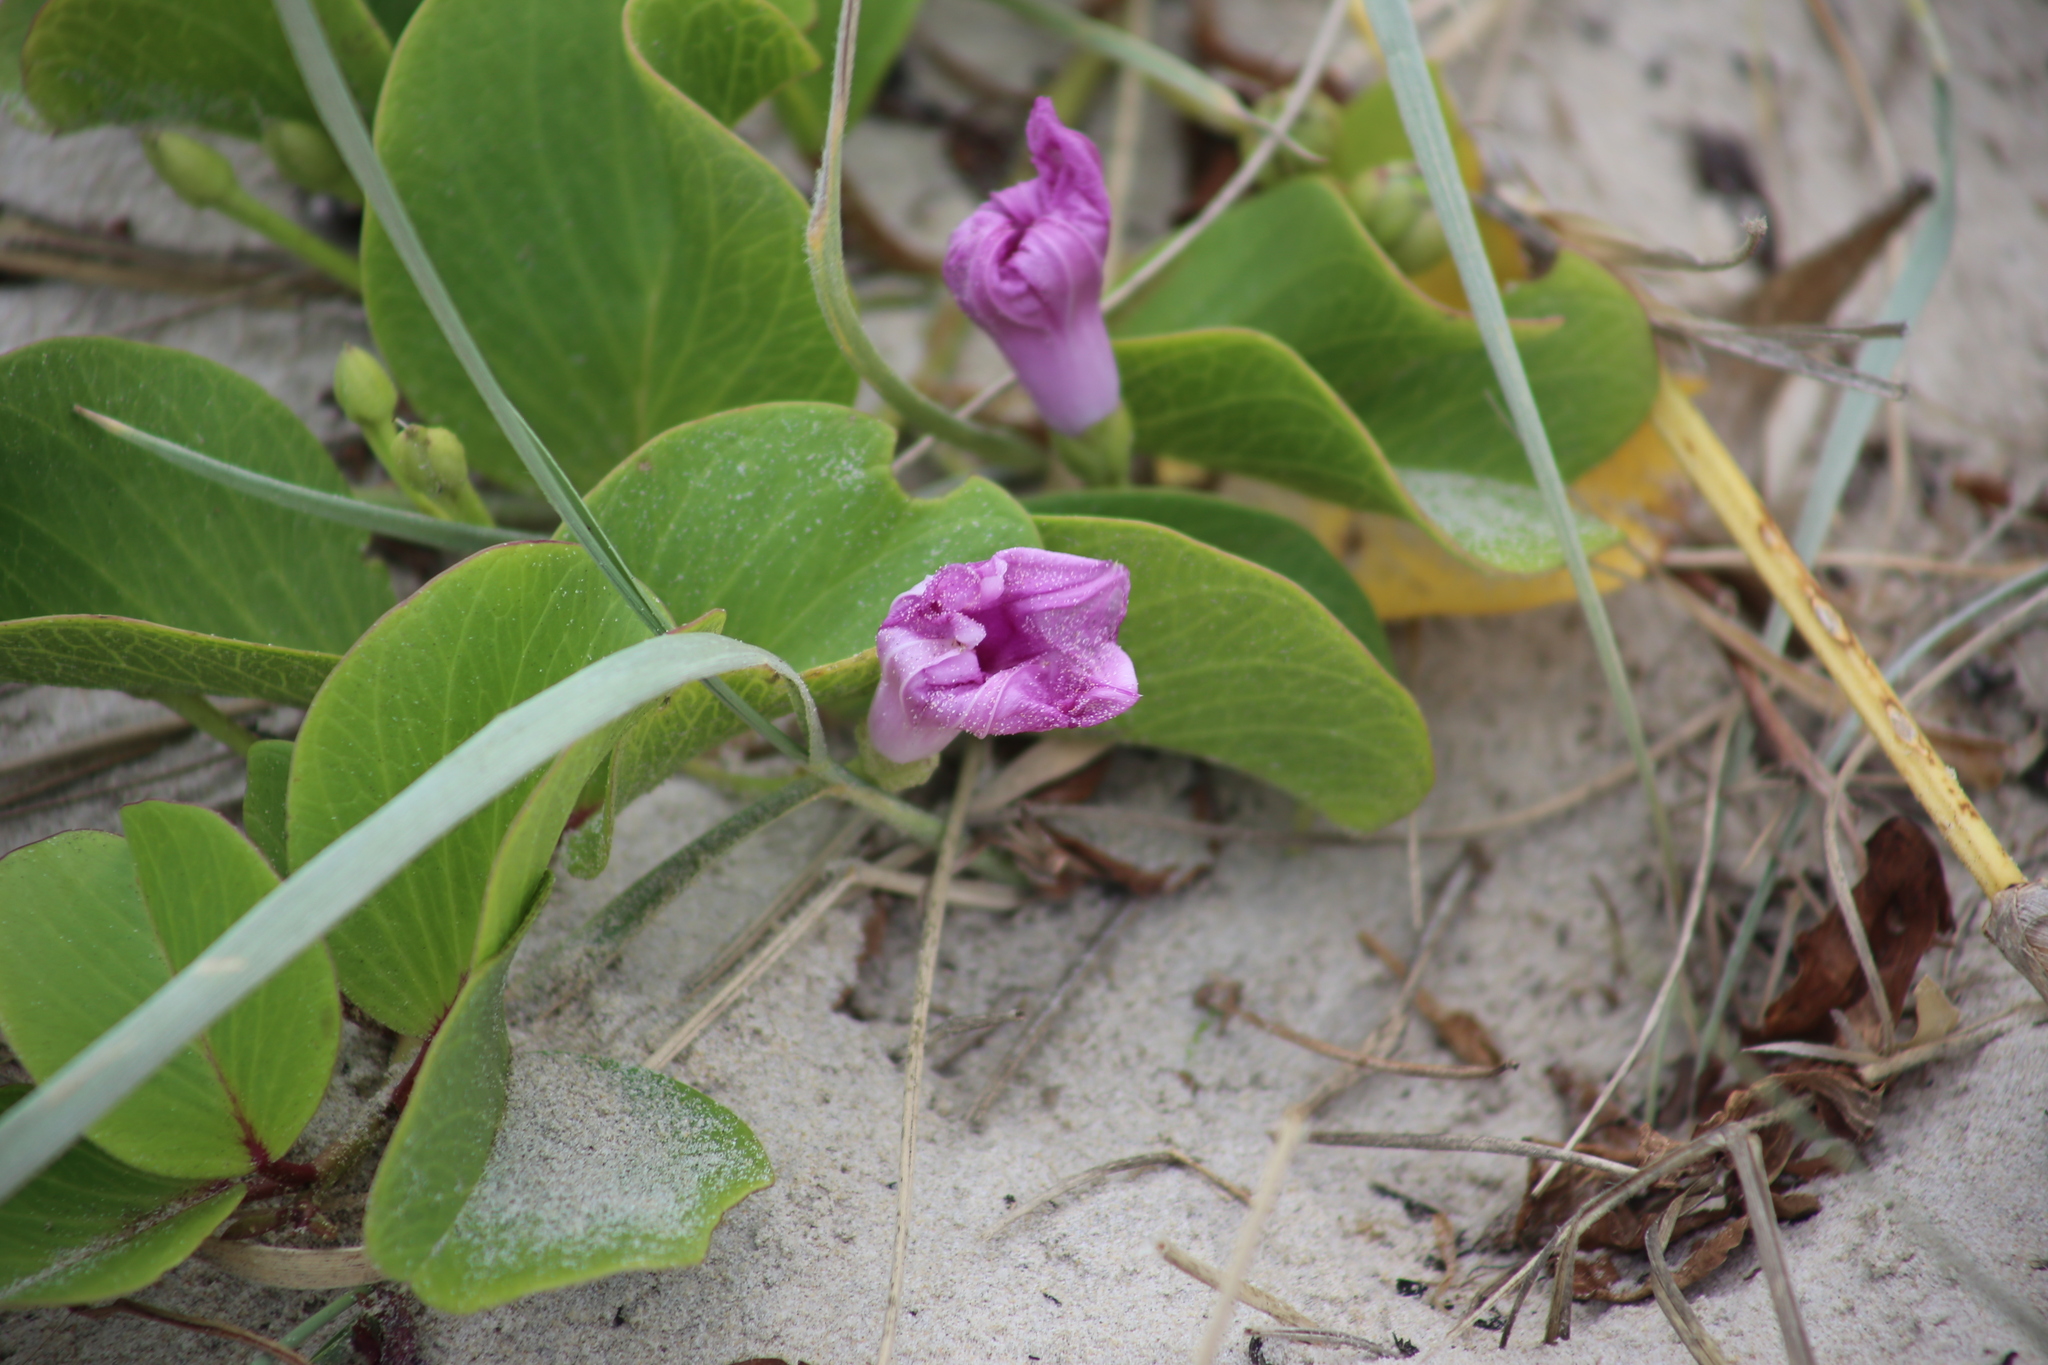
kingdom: Plantae
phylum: Tracheophyta
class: Magnoliopsida
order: Solanales
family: Convolvulaceae
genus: Ipomoea
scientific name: Ipomoea pes-caprae
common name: Beach morning glory
